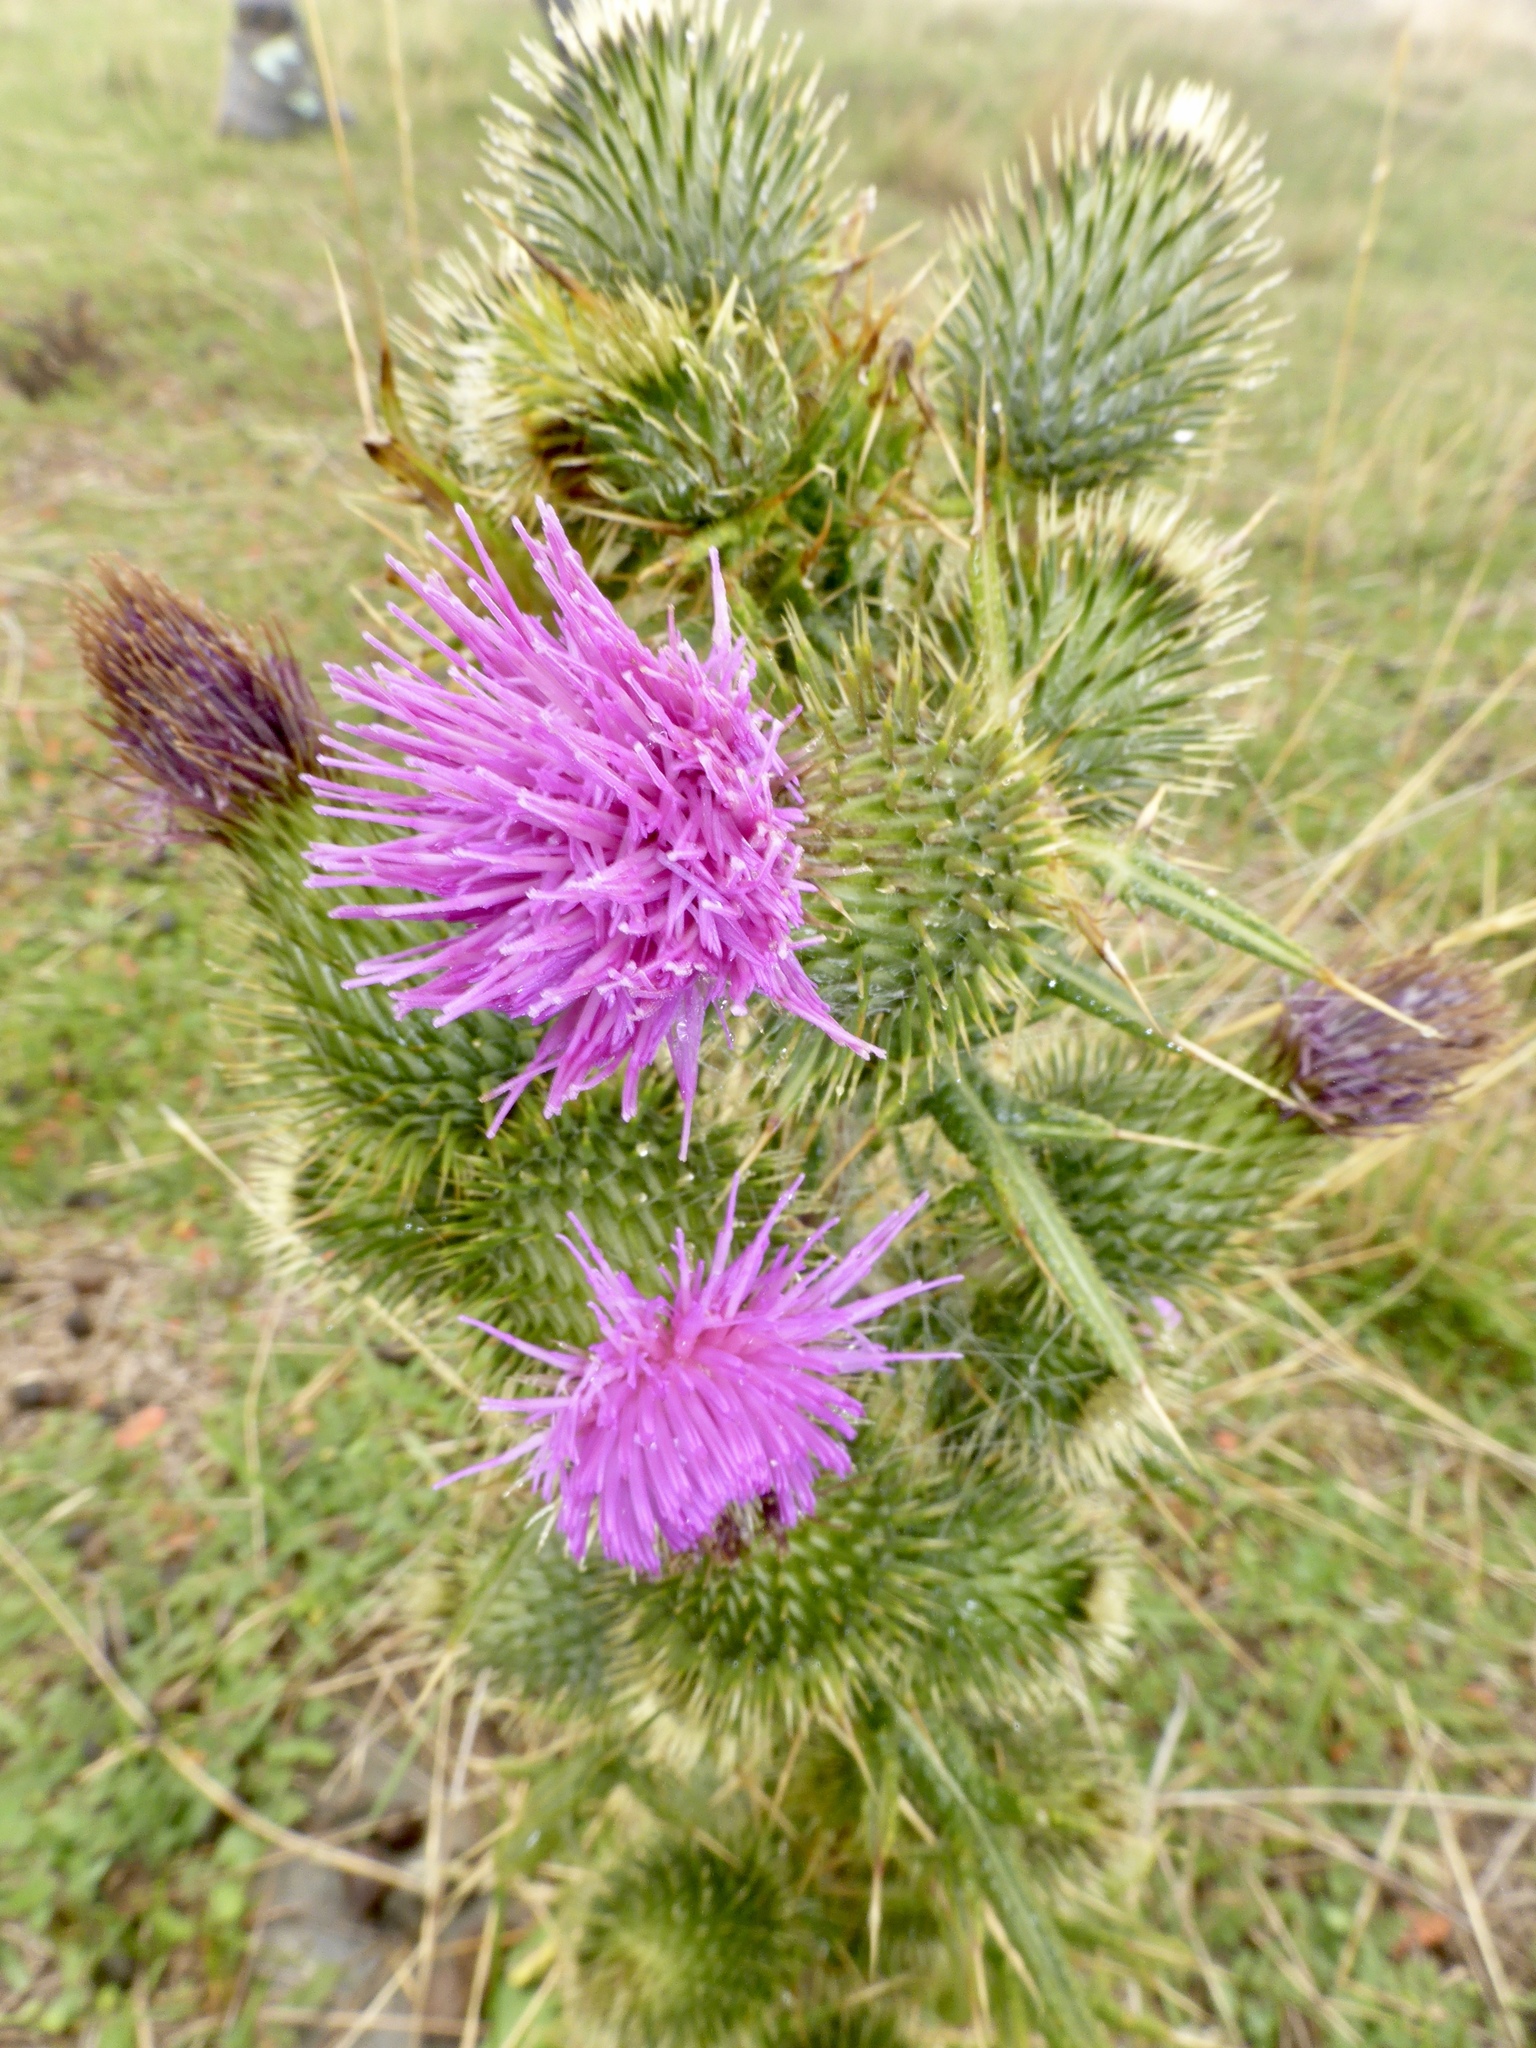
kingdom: Plantae
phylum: Tracheophyta
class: Magnoliopsida
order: Asterales
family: Asteraceae
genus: Cirsium
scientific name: Cirsium vulgare
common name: Bull thistle
